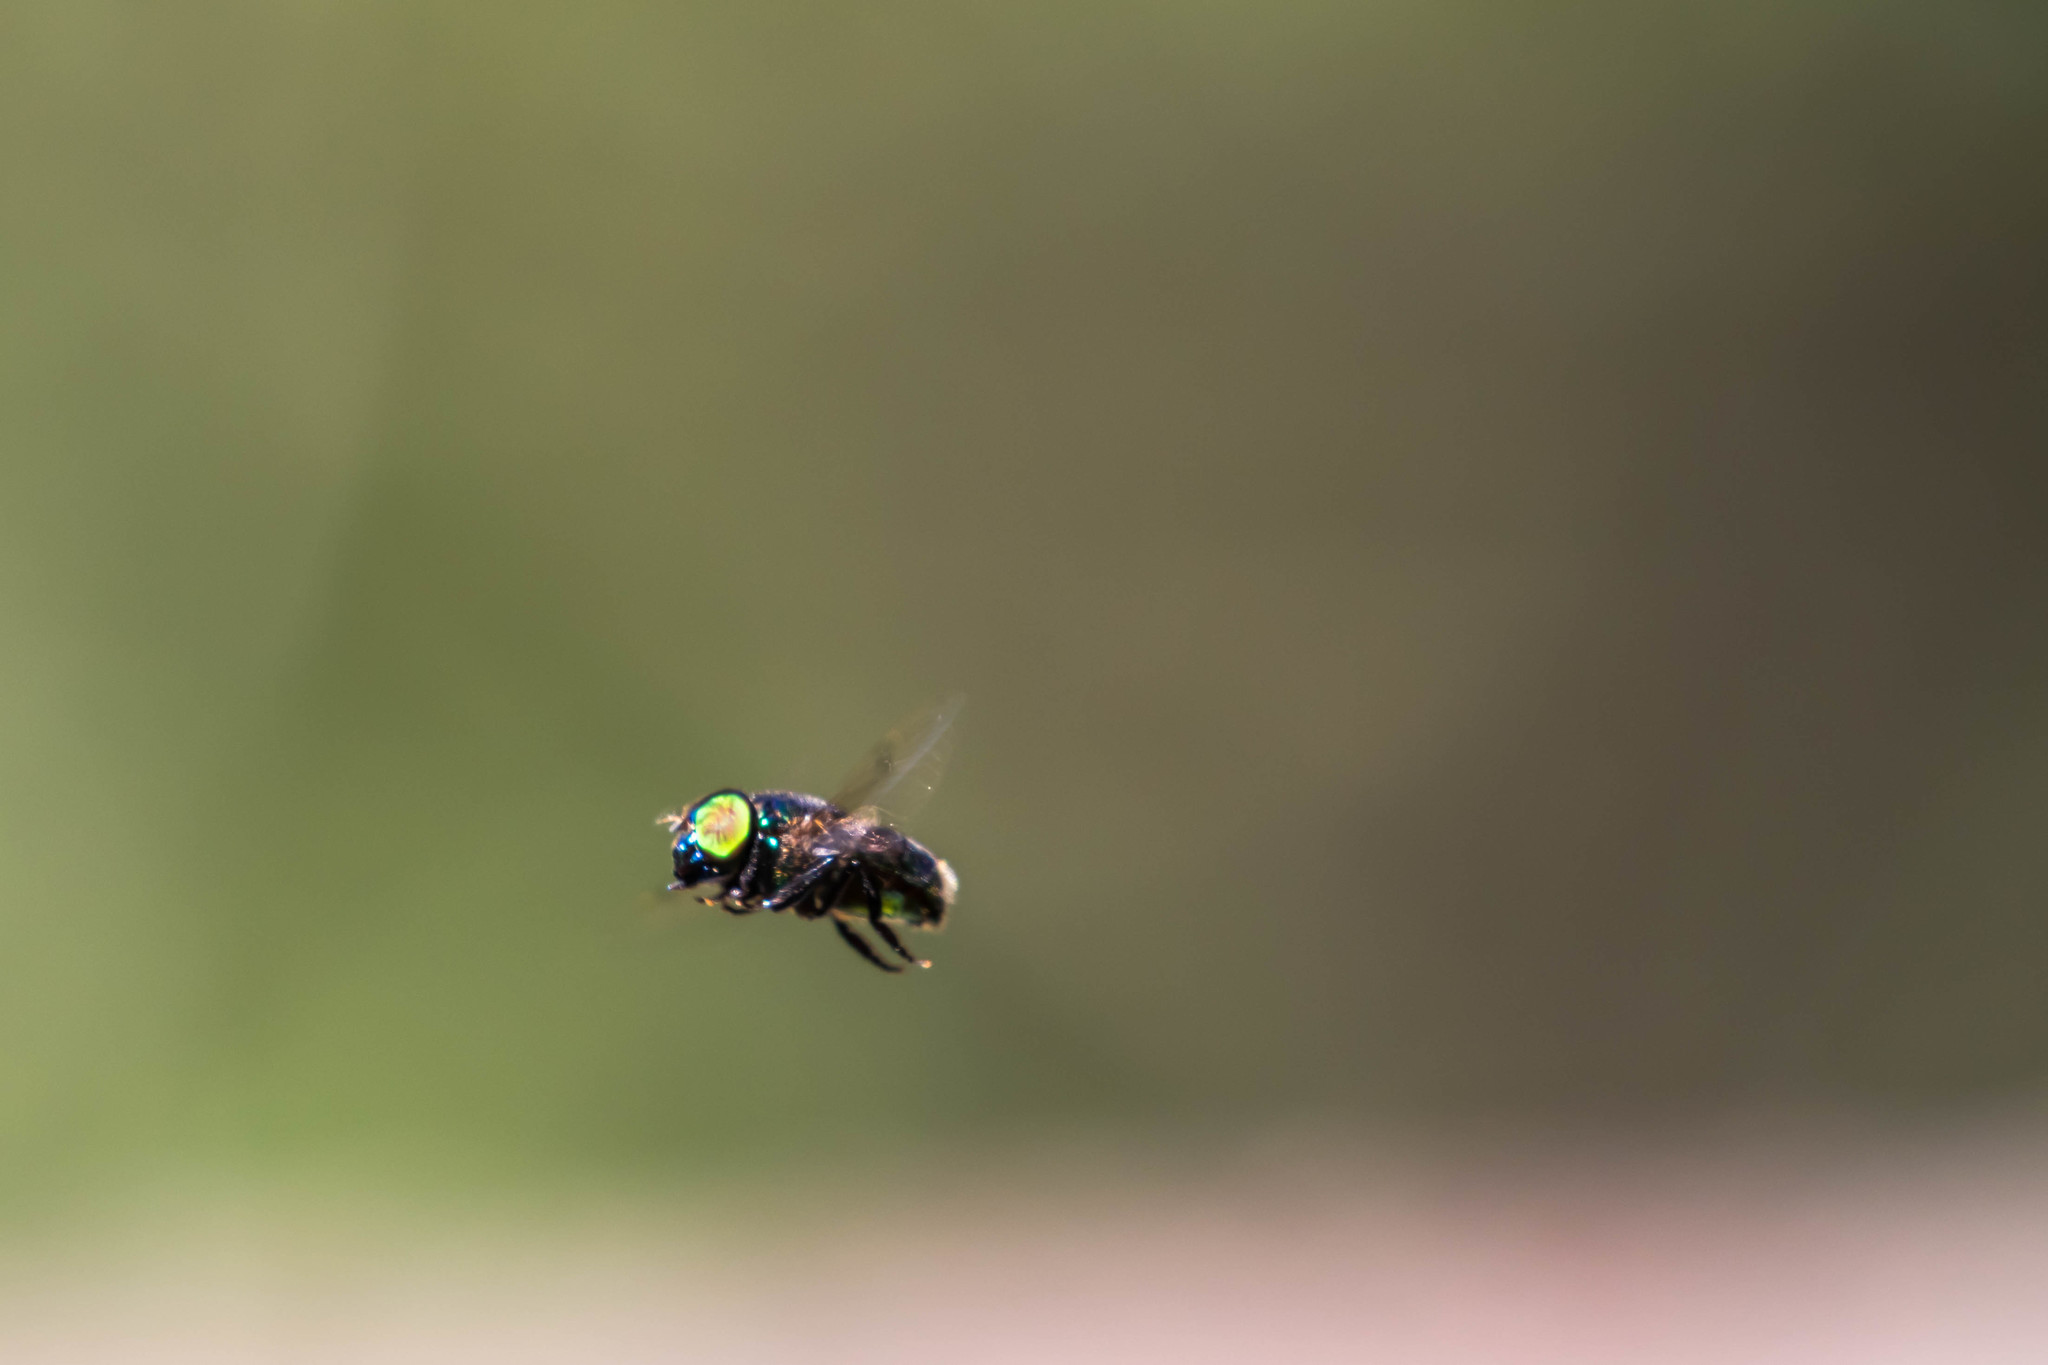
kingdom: Animalia
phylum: Arthropoda
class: Insecta
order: Diptera
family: Syrphidae
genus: Ornidia
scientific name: Ornidia obesa
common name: Syrphid fly
